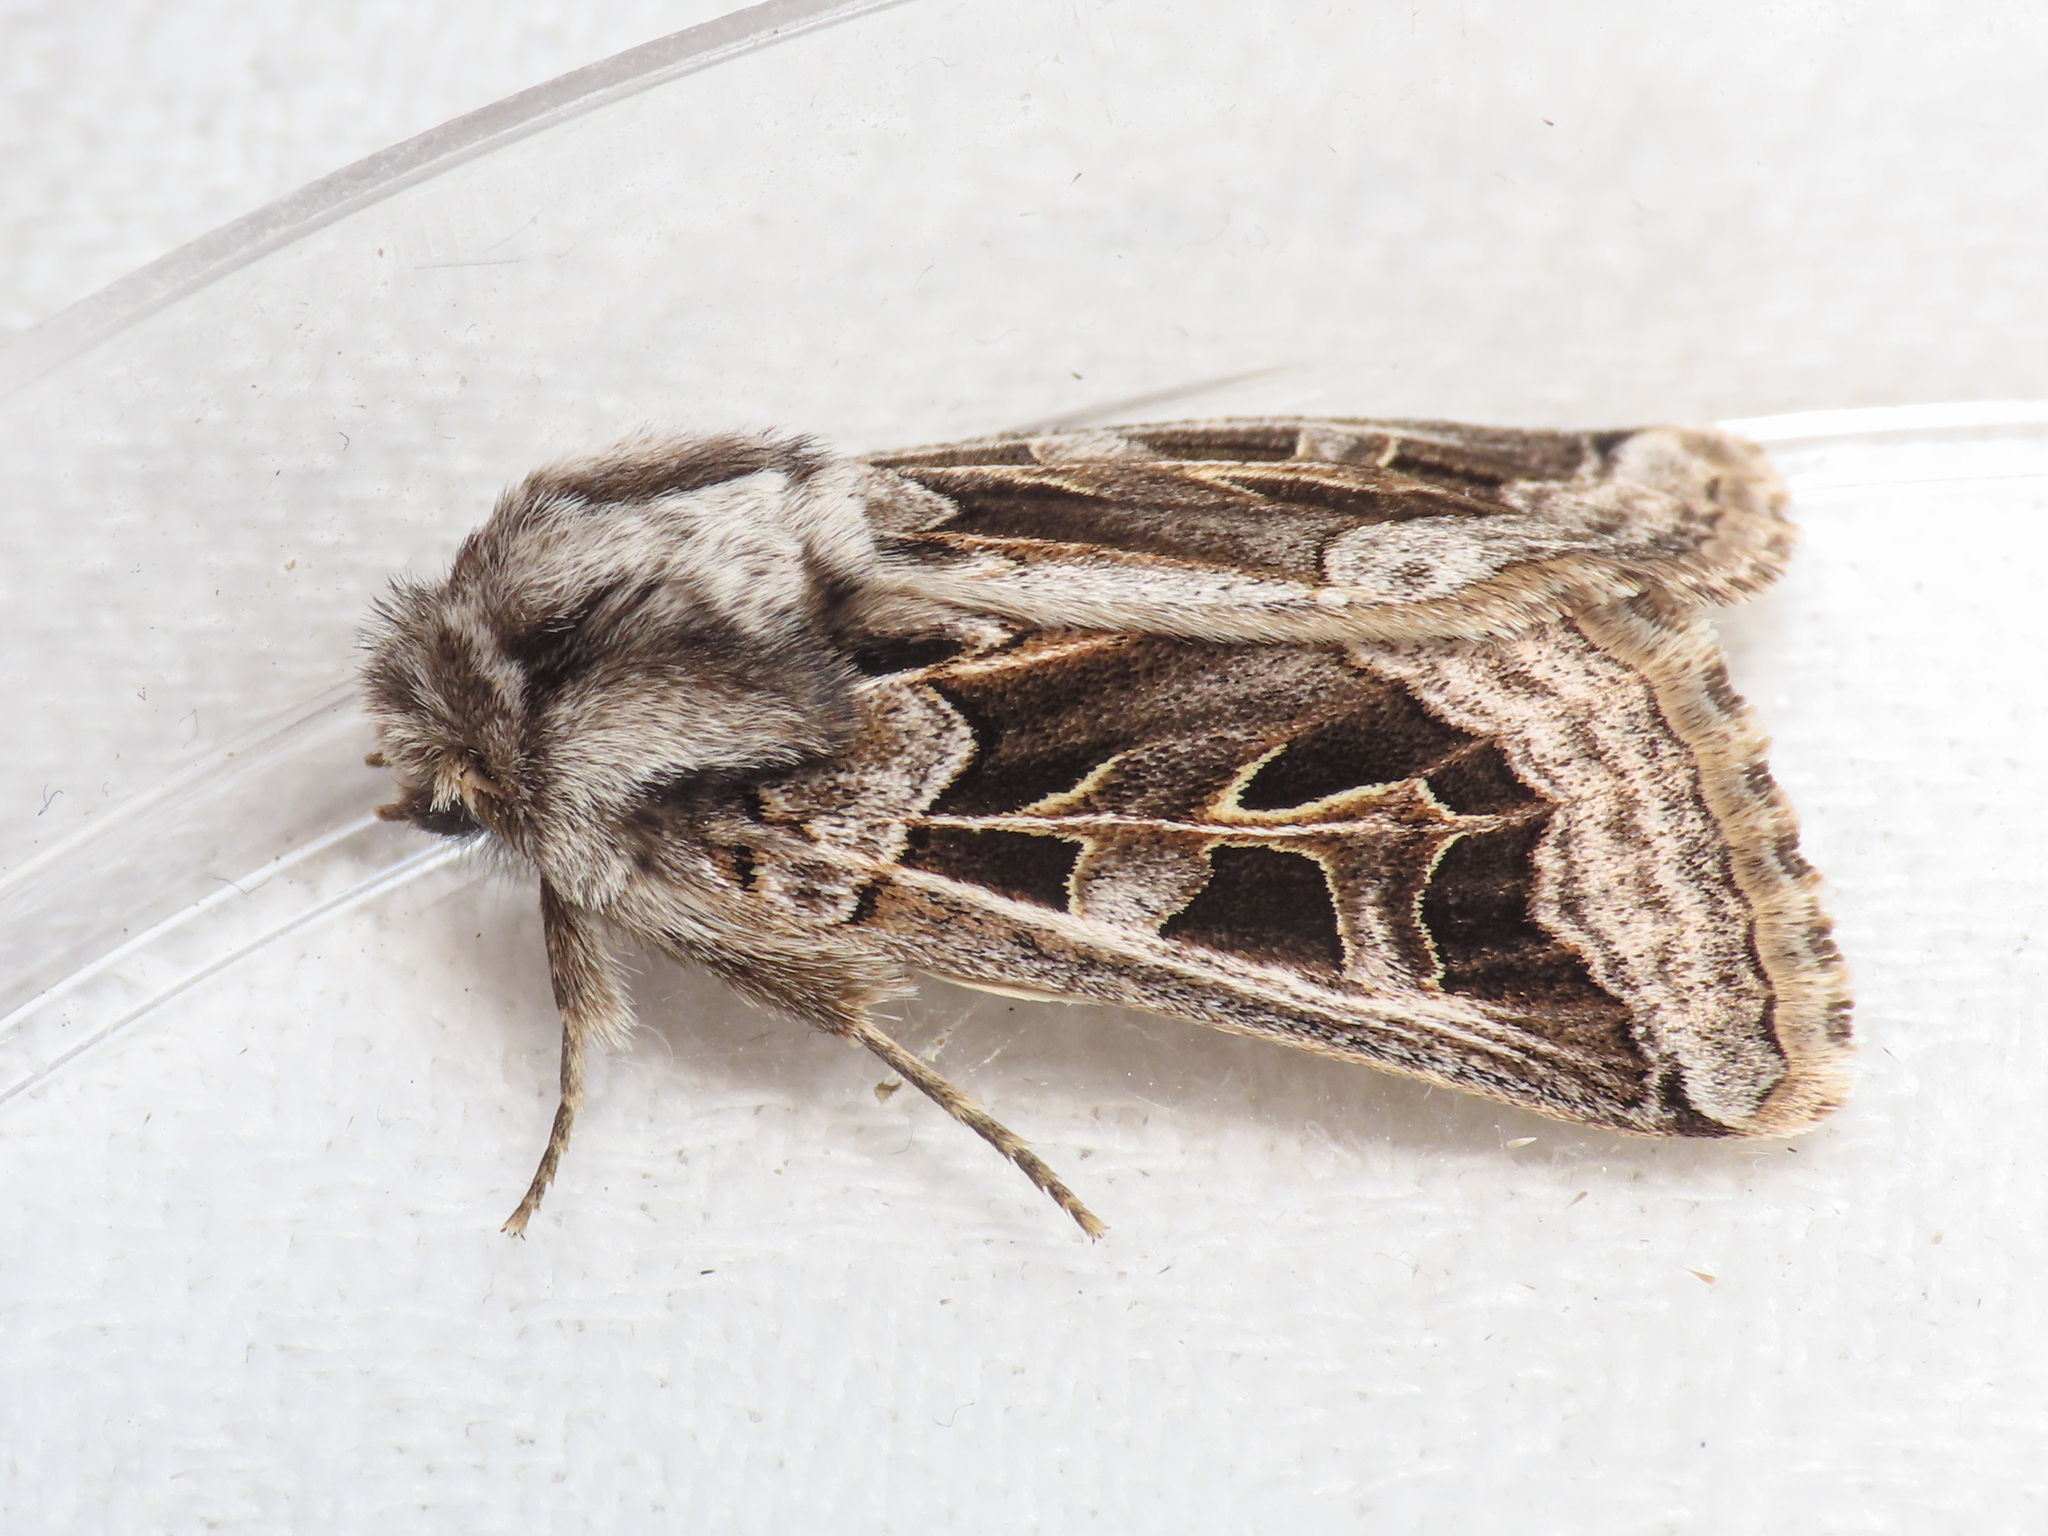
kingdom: Animalia
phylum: Arthropoda
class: Insecta
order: Lepidoptera
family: Noctuidae
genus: Episema
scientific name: Episema glaucina
